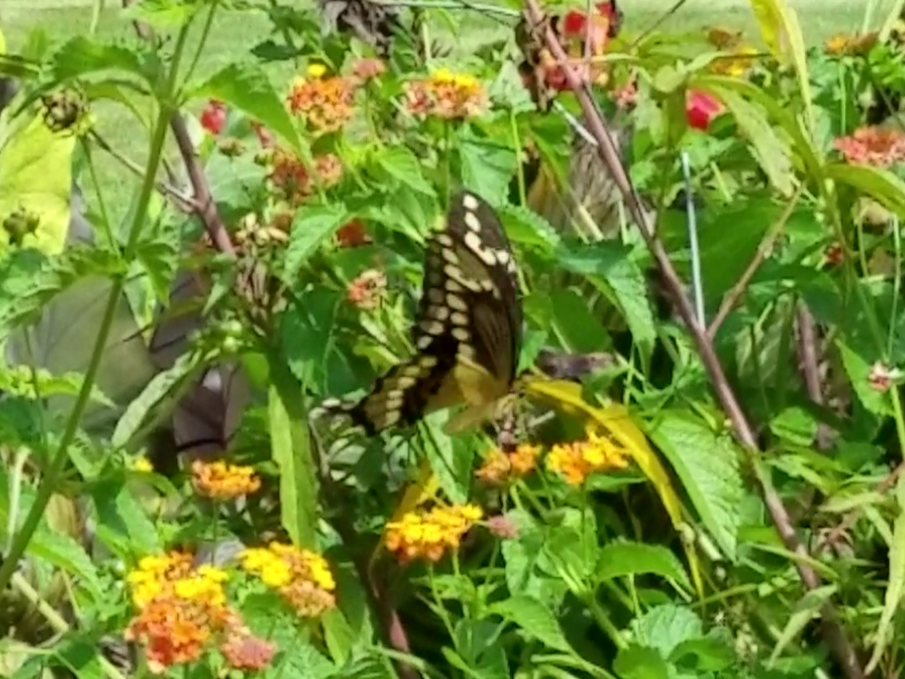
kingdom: Animalia
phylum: Arthropoda
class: Insecta
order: Lepidoptera
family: Papilionidae
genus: Papilio
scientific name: Papilio cresphontes
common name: Giant swallowtail
